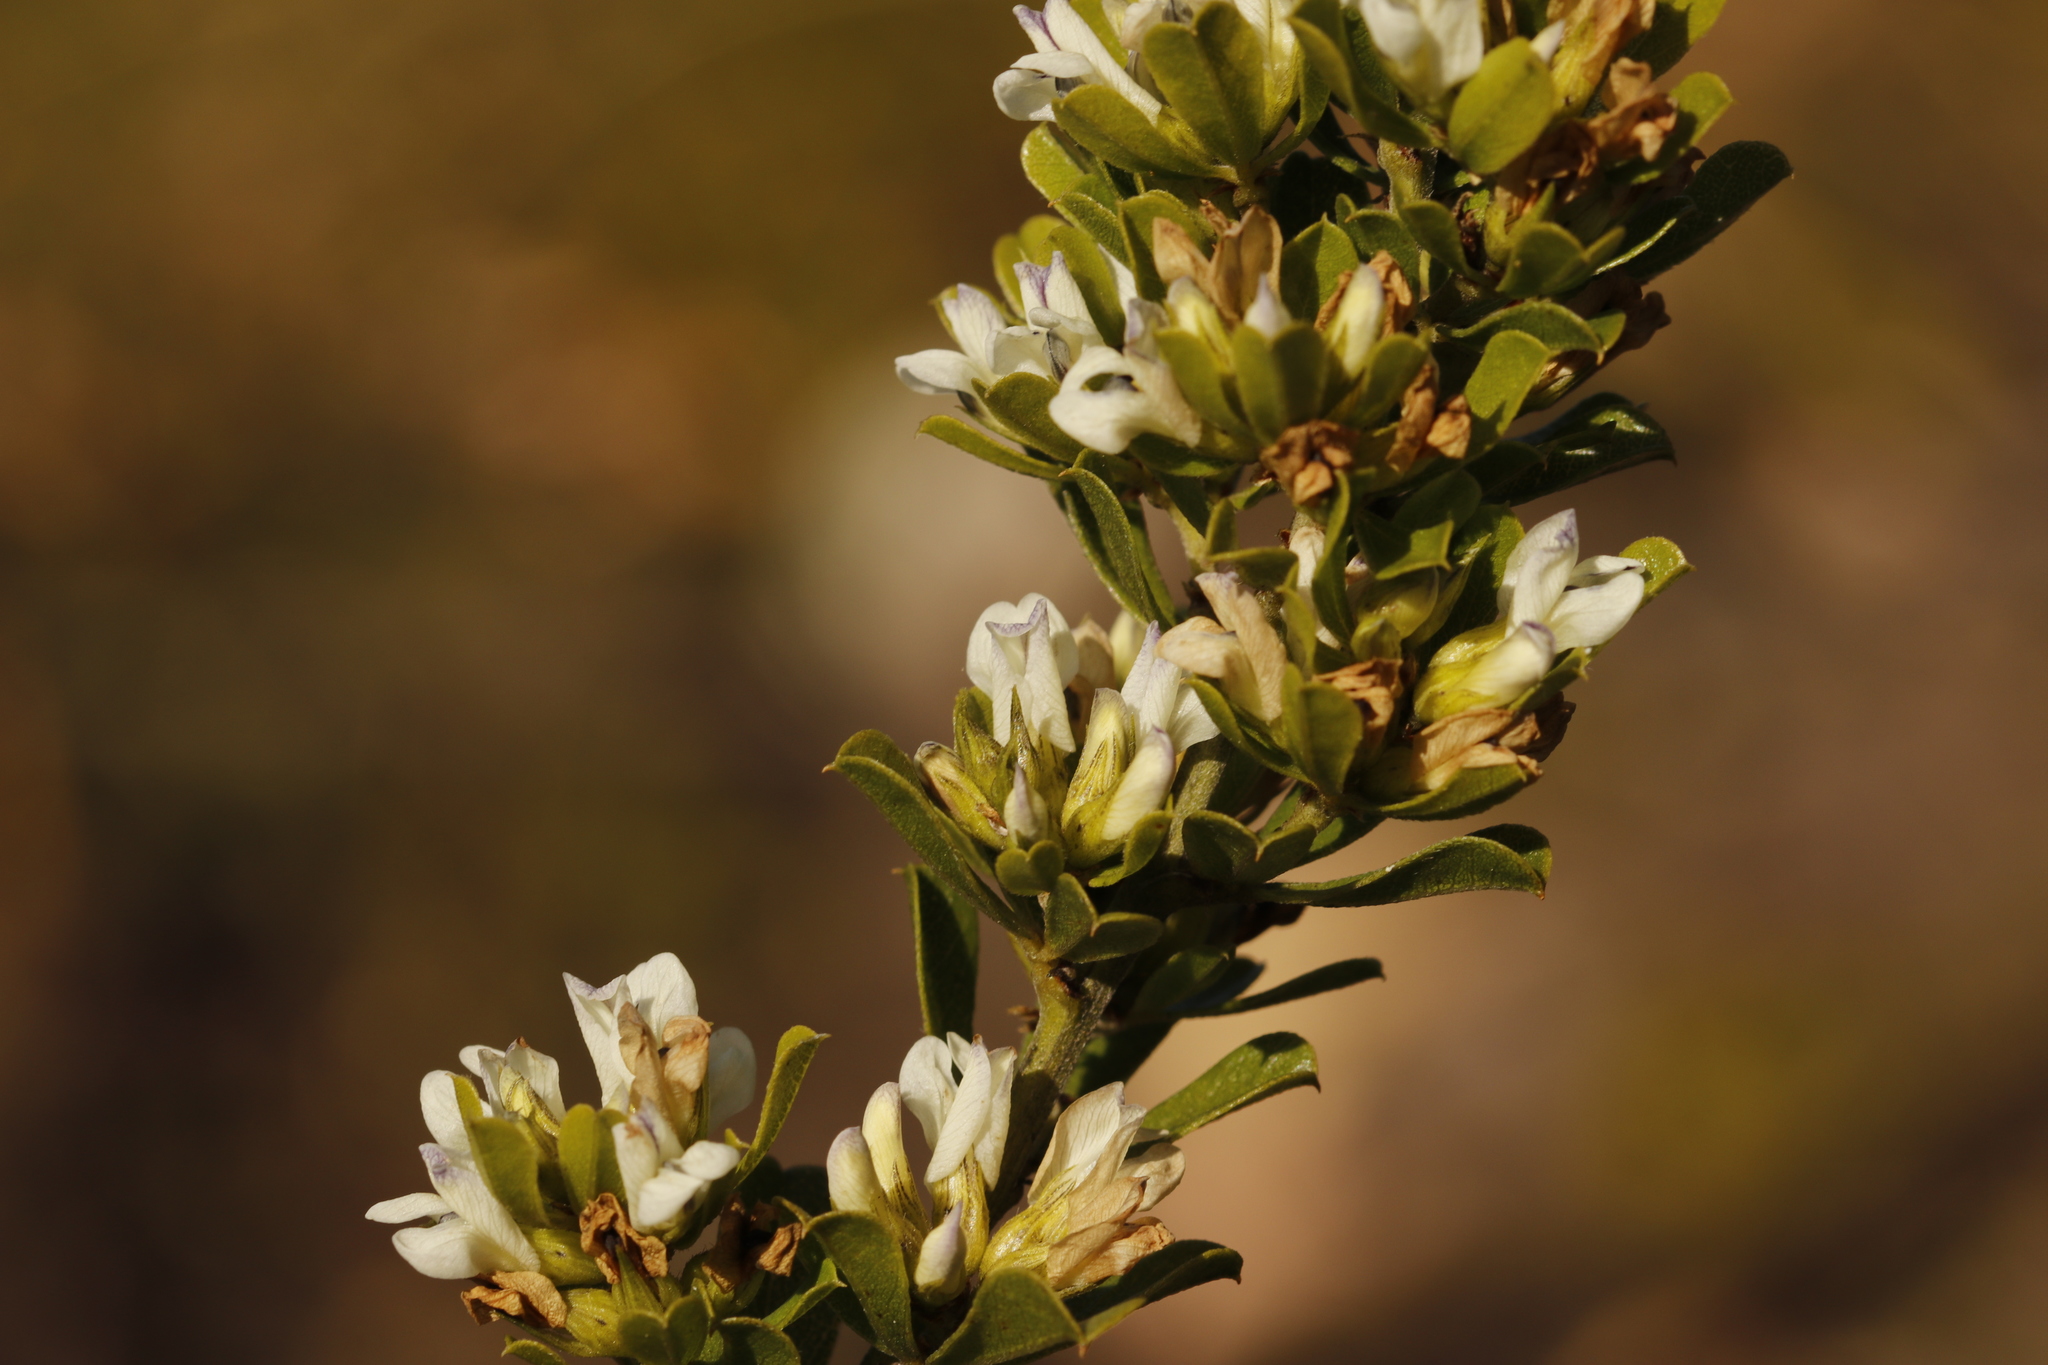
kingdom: Plantae
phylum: Tracheophyta
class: Magnoliopsida
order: Fabales
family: Fabaceae
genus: Psoralea
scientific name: Psoralea prodiens
